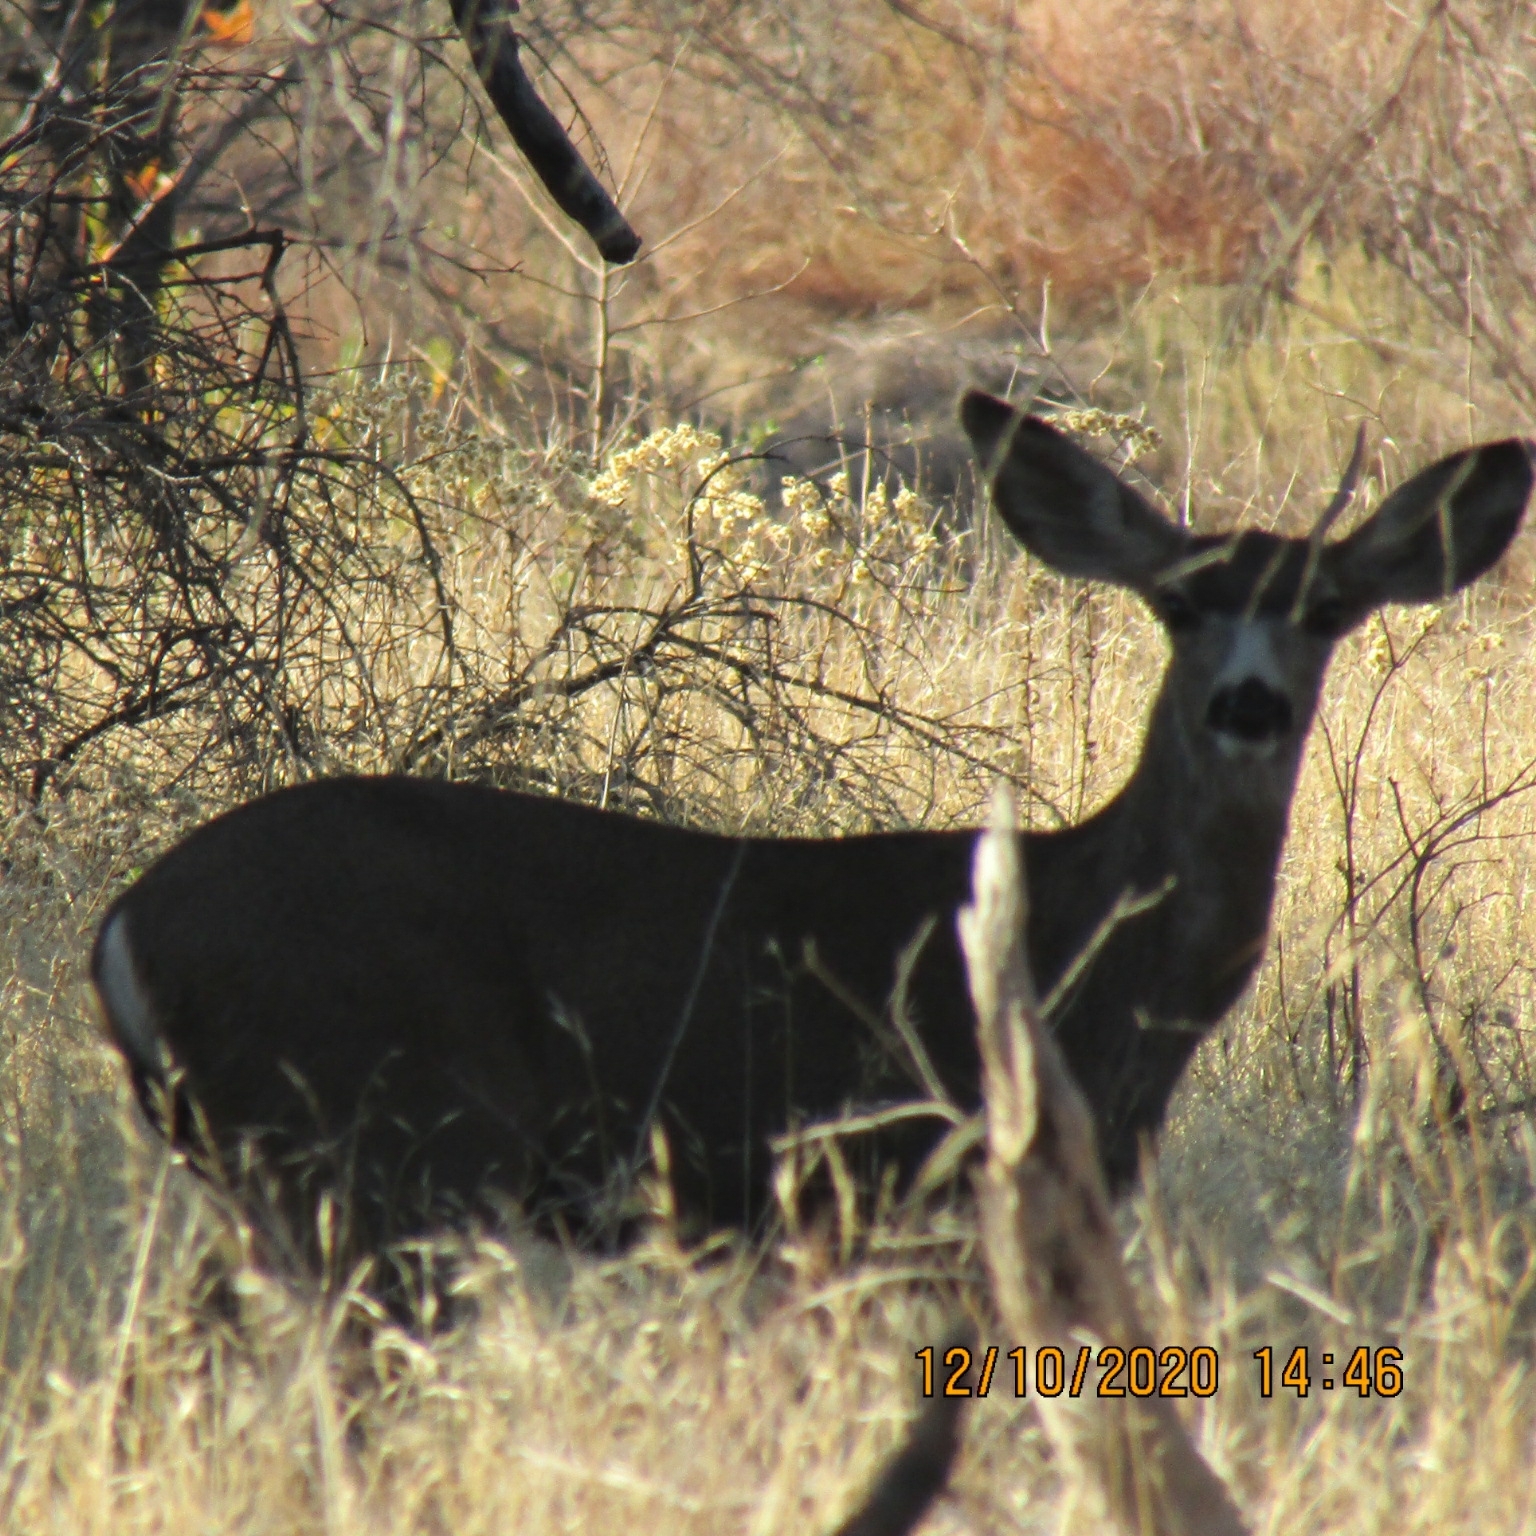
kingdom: Animalia
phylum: Chordata
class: Mammalia
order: Artiodactyla
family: Cervidae
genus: Odocoileus
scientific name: Odocoileus hemionus
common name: Mule deer
